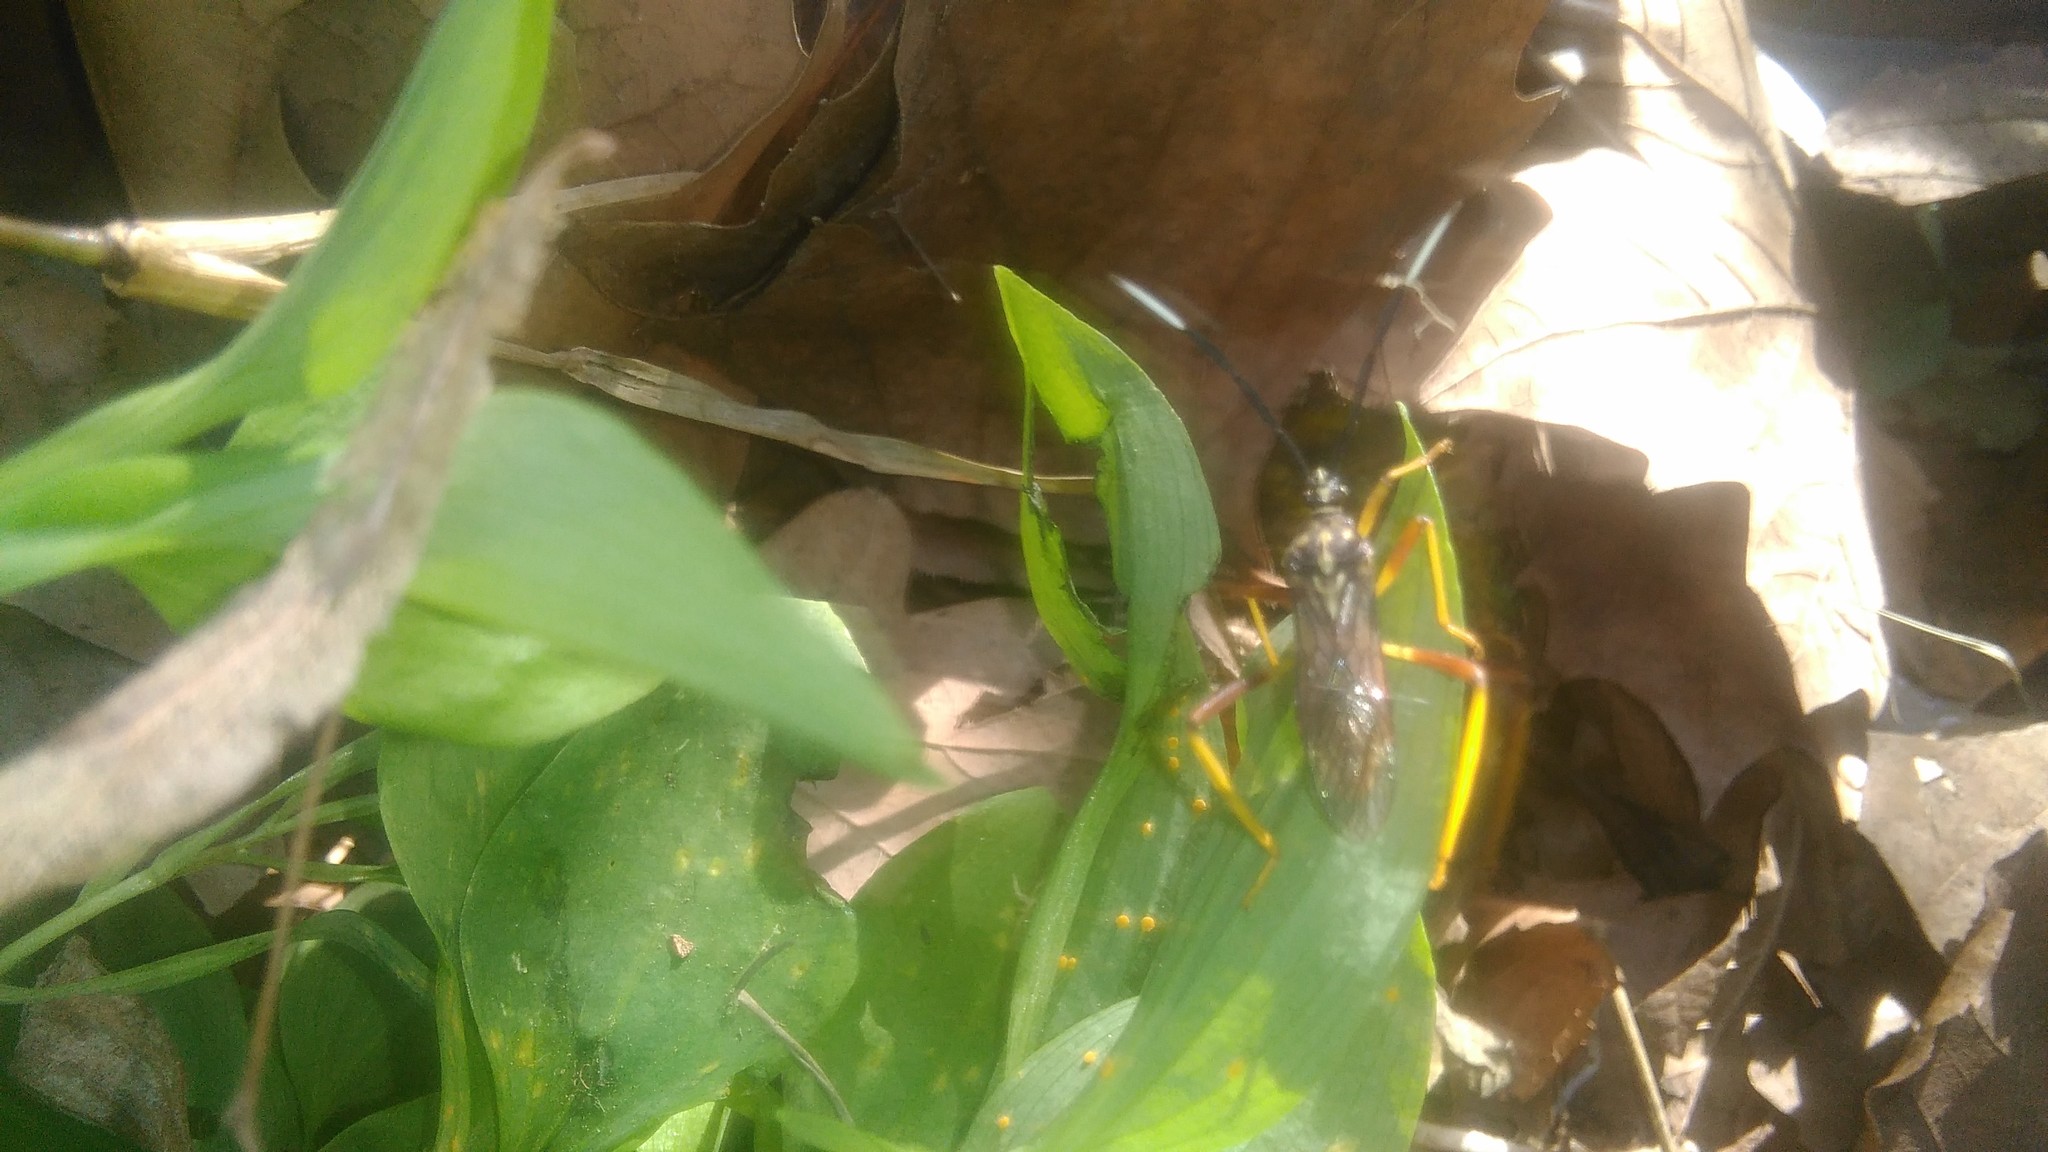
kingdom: Animalia
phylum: Arthropoda
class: Insecta
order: Hemiptera
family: Coreidae
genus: Holhymenia
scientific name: Holhymenia histrio
